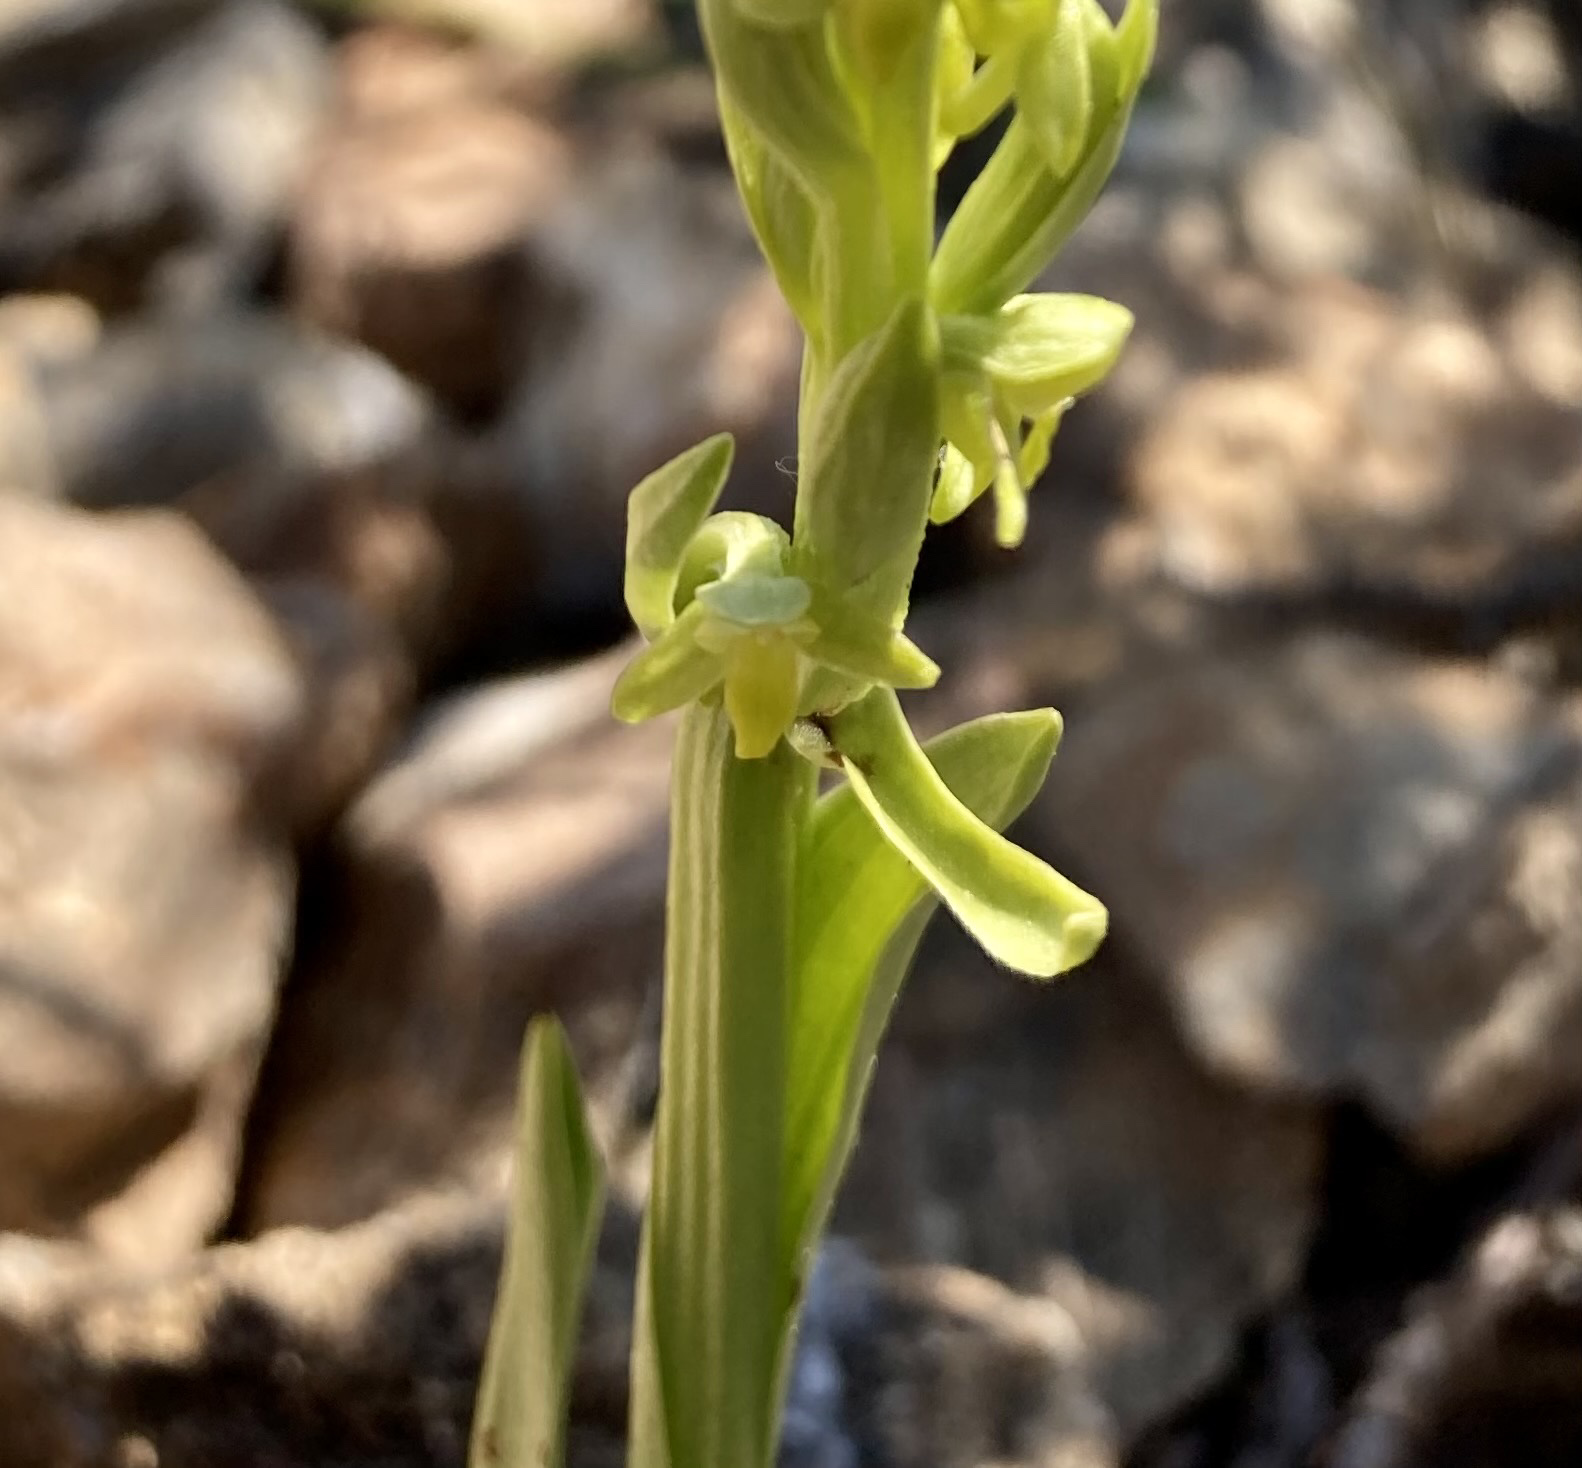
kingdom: Plantae
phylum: Tracheophyta
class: Liliopsida
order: Asparagales
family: Orchidaceae
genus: Platanthera
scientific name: Platanthera aquilonis
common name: Northern green orchid
